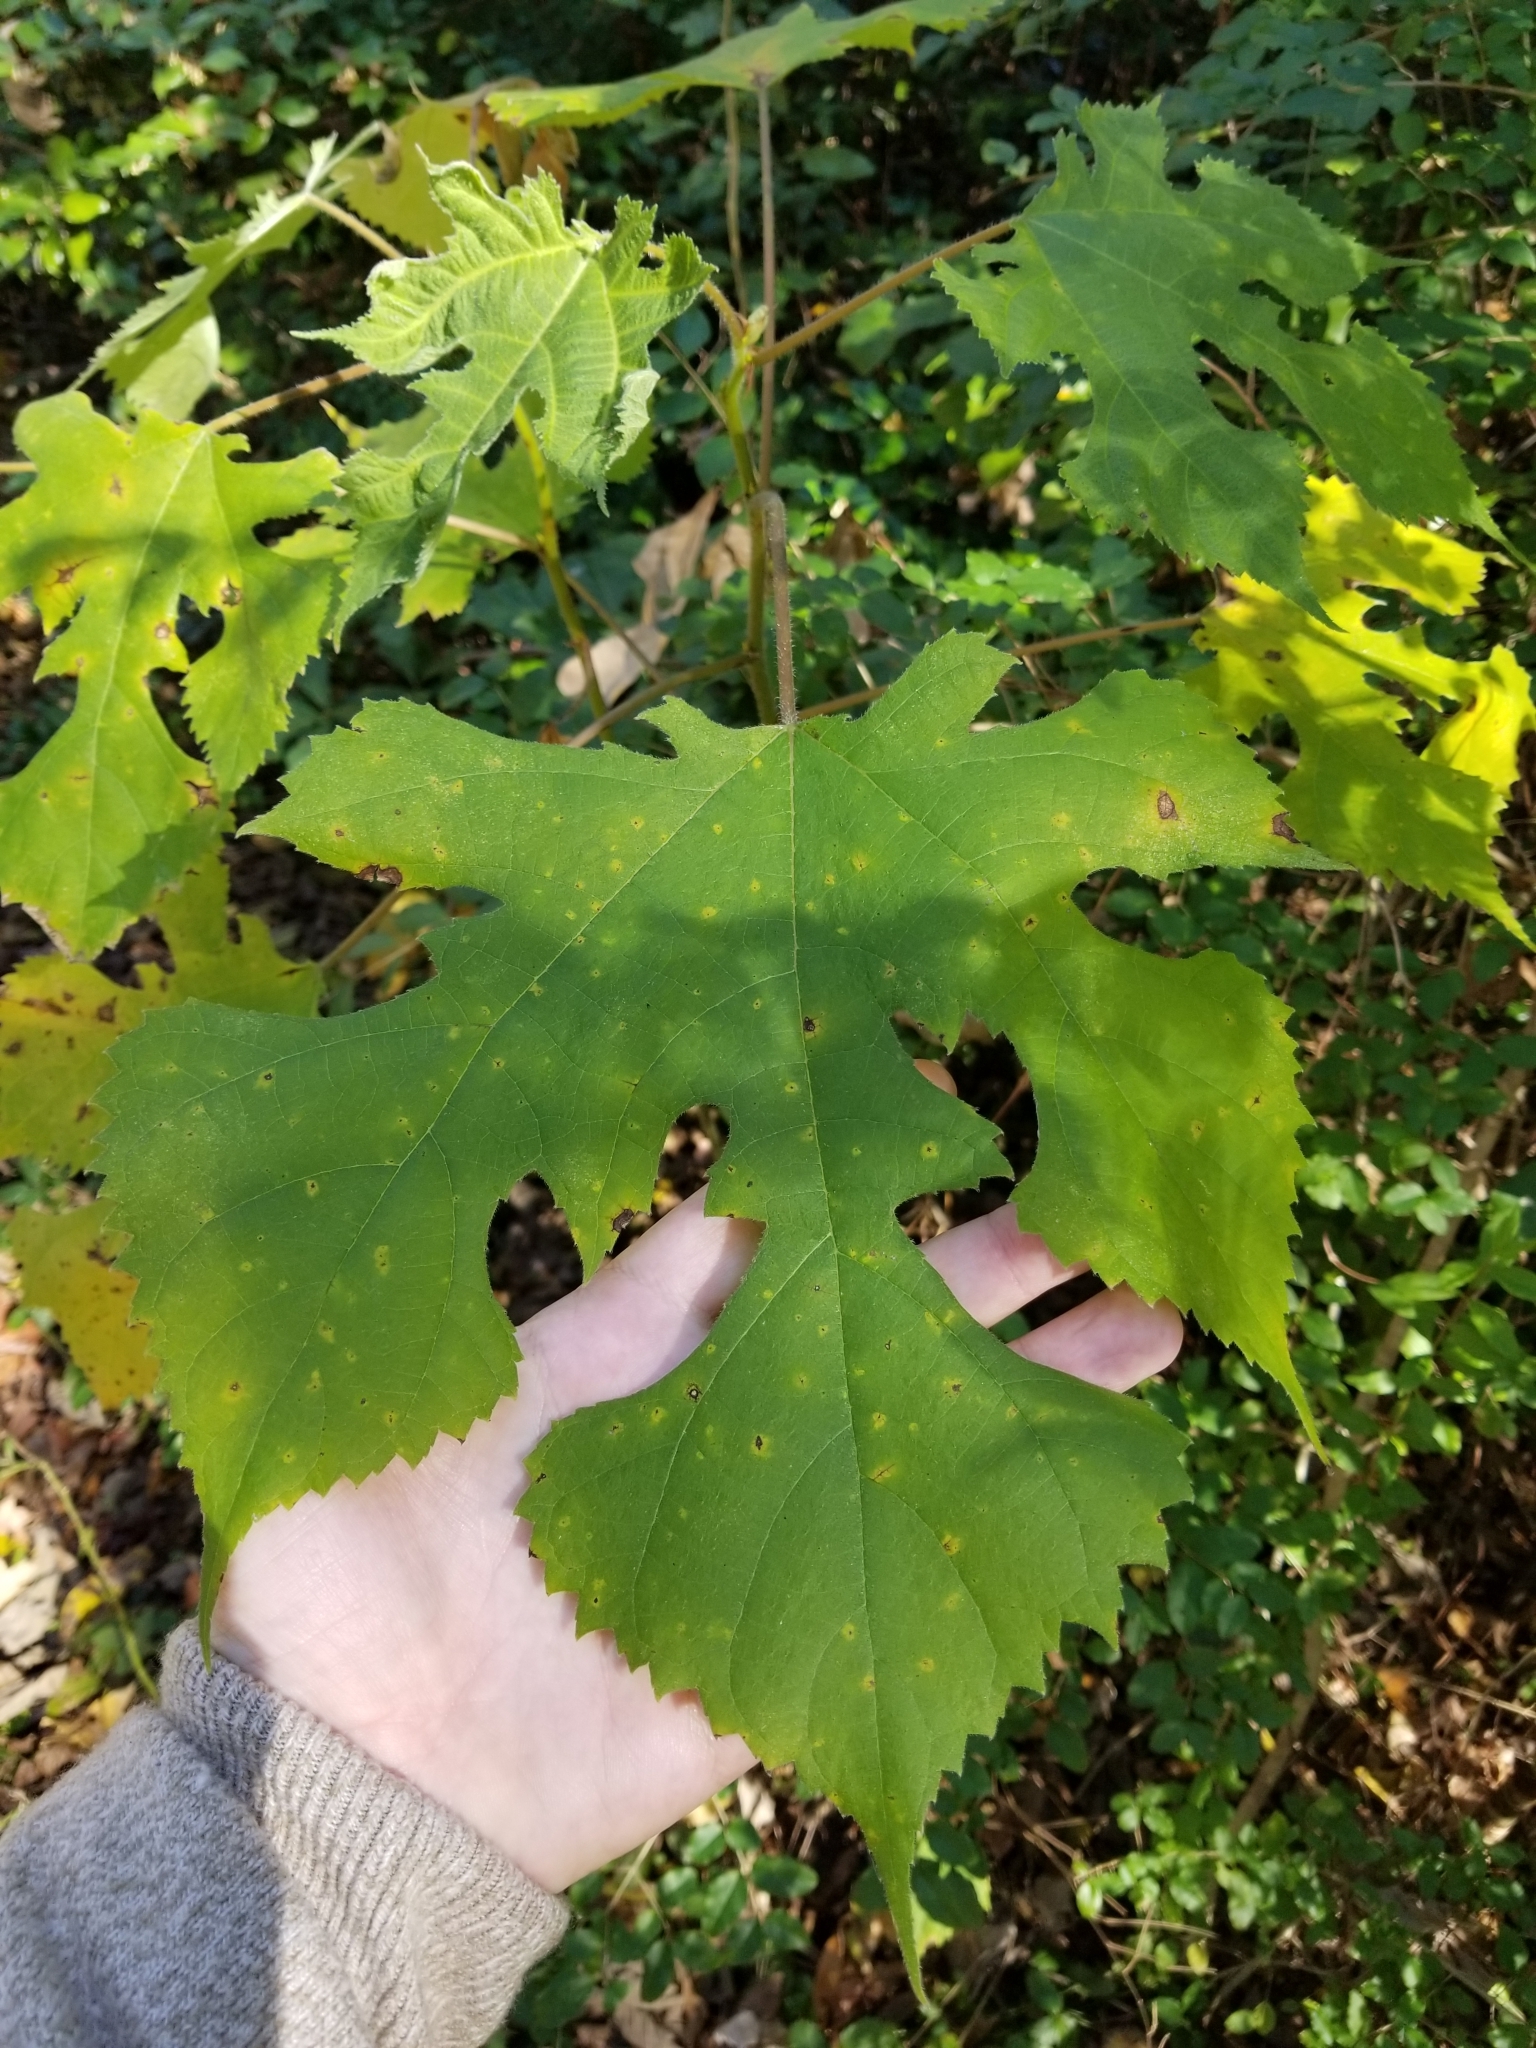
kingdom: Plantae
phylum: Tracheophyta
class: Magnoliopsida
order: Rosales
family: Moraceae
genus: Broussonetia
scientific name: Broussonetia papyrifera
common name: Paper mulberry
